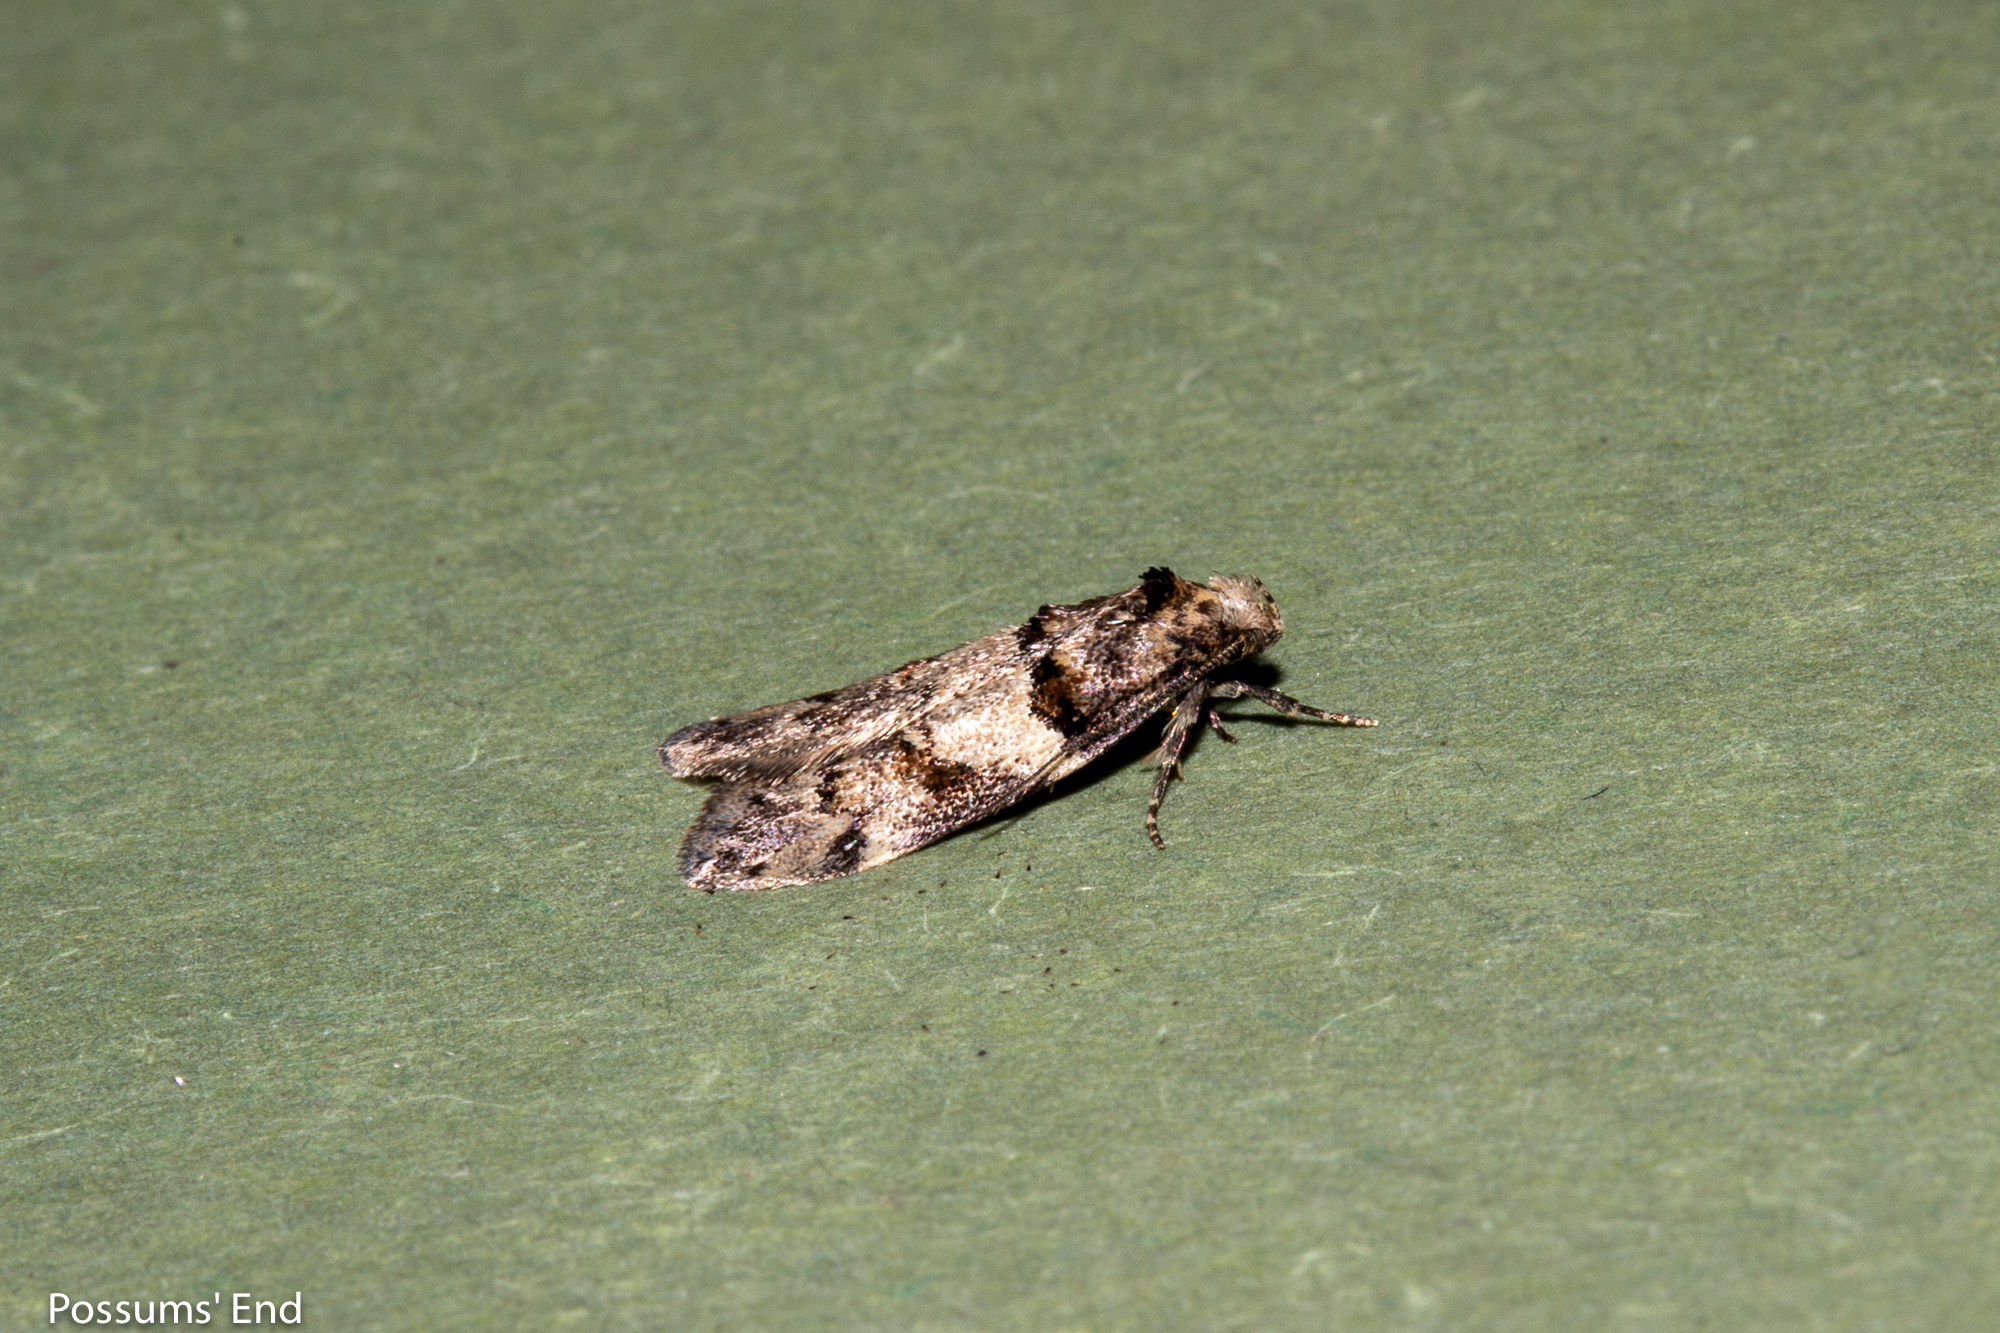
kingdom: Animalia
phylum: Arthropoda
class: Insecta
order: Lepidoptera
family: Oecophoridae
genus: Trachypepla
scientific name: Trachypepla contritella
